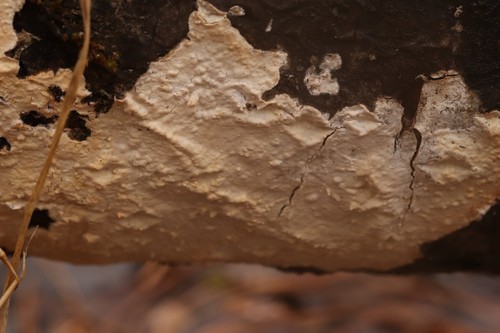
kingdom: Fungi
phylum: Basidiomycota
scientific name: Basidiomycota
